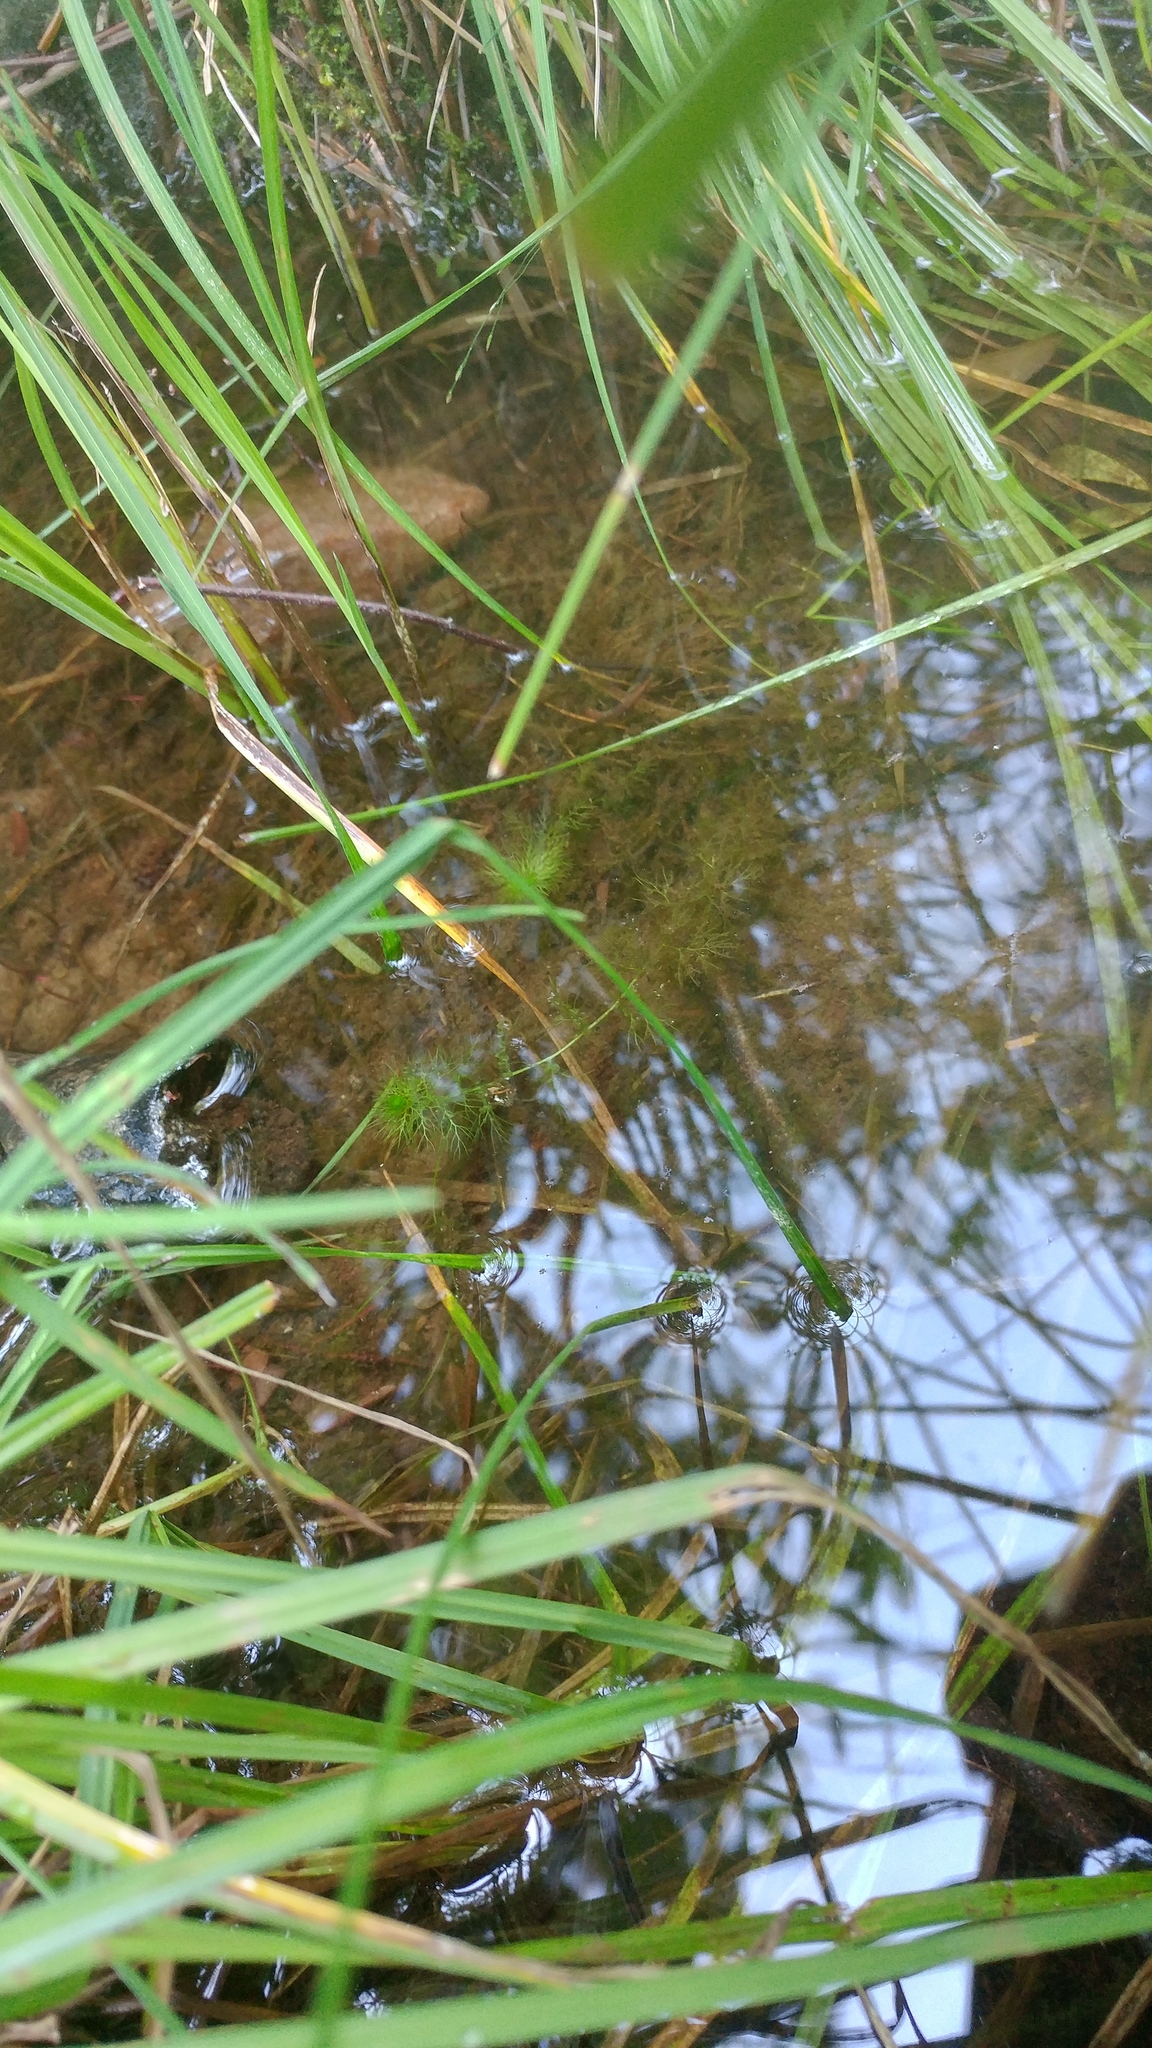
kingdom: Plantae
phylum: Tracheophyta
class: Magnoliopsida
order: Lamiales
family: Lentibulariaceae
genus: Utricularia
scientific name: Utricularia macrorhiza
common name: Common bladderwort
